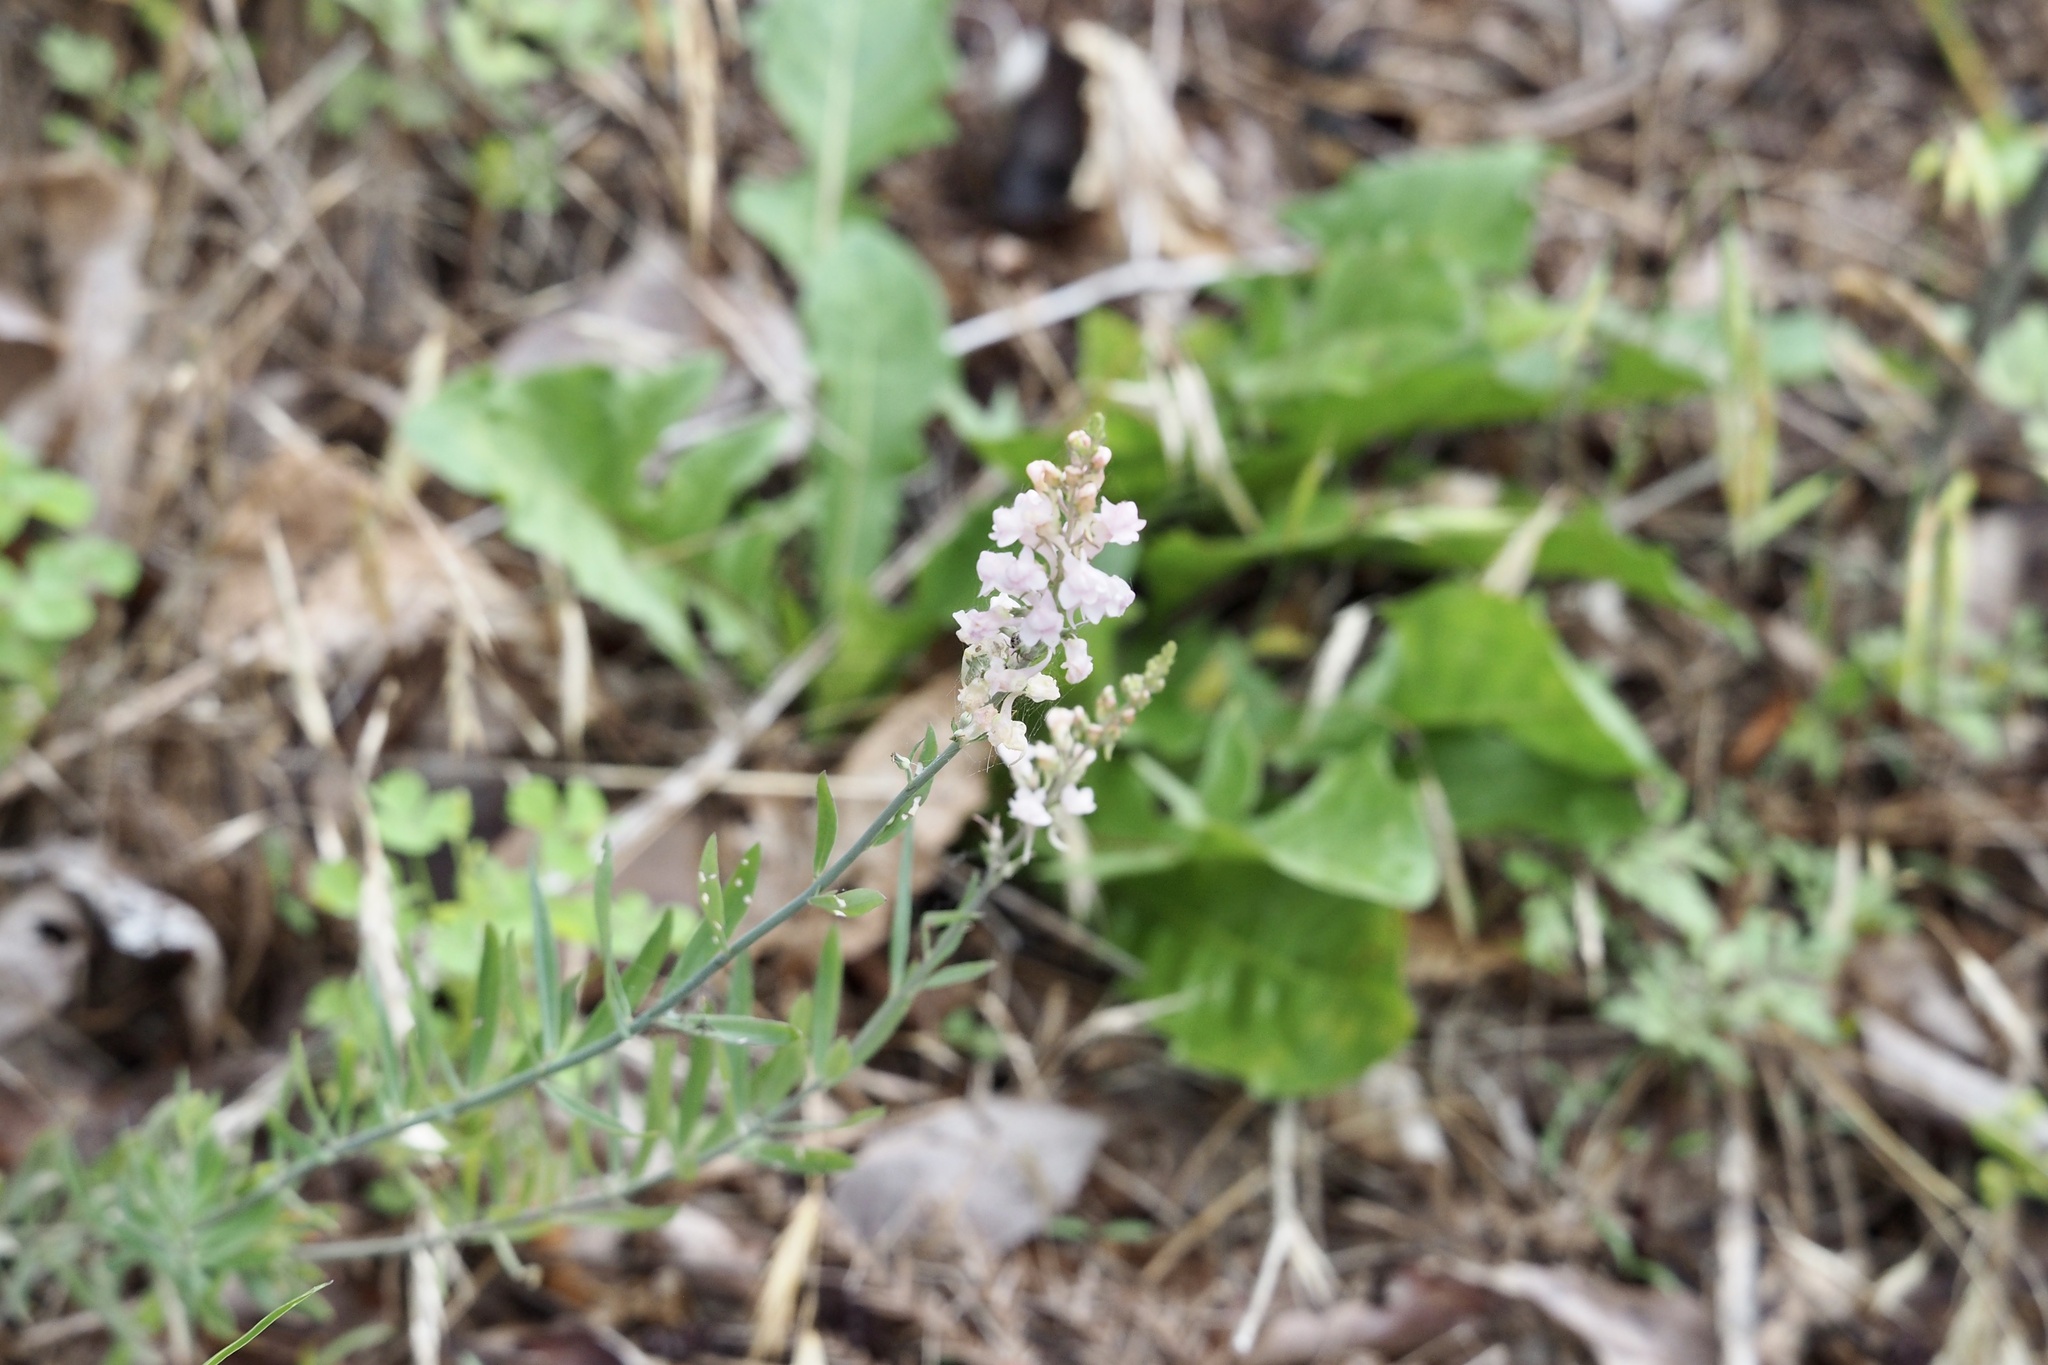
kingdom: Plantae
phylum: Tracheophyta
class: Magnoliopsida
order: Lamiales
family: Plantaginaceae
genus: Linaria
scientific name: Linaria purpurea
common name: Purple toadflax
